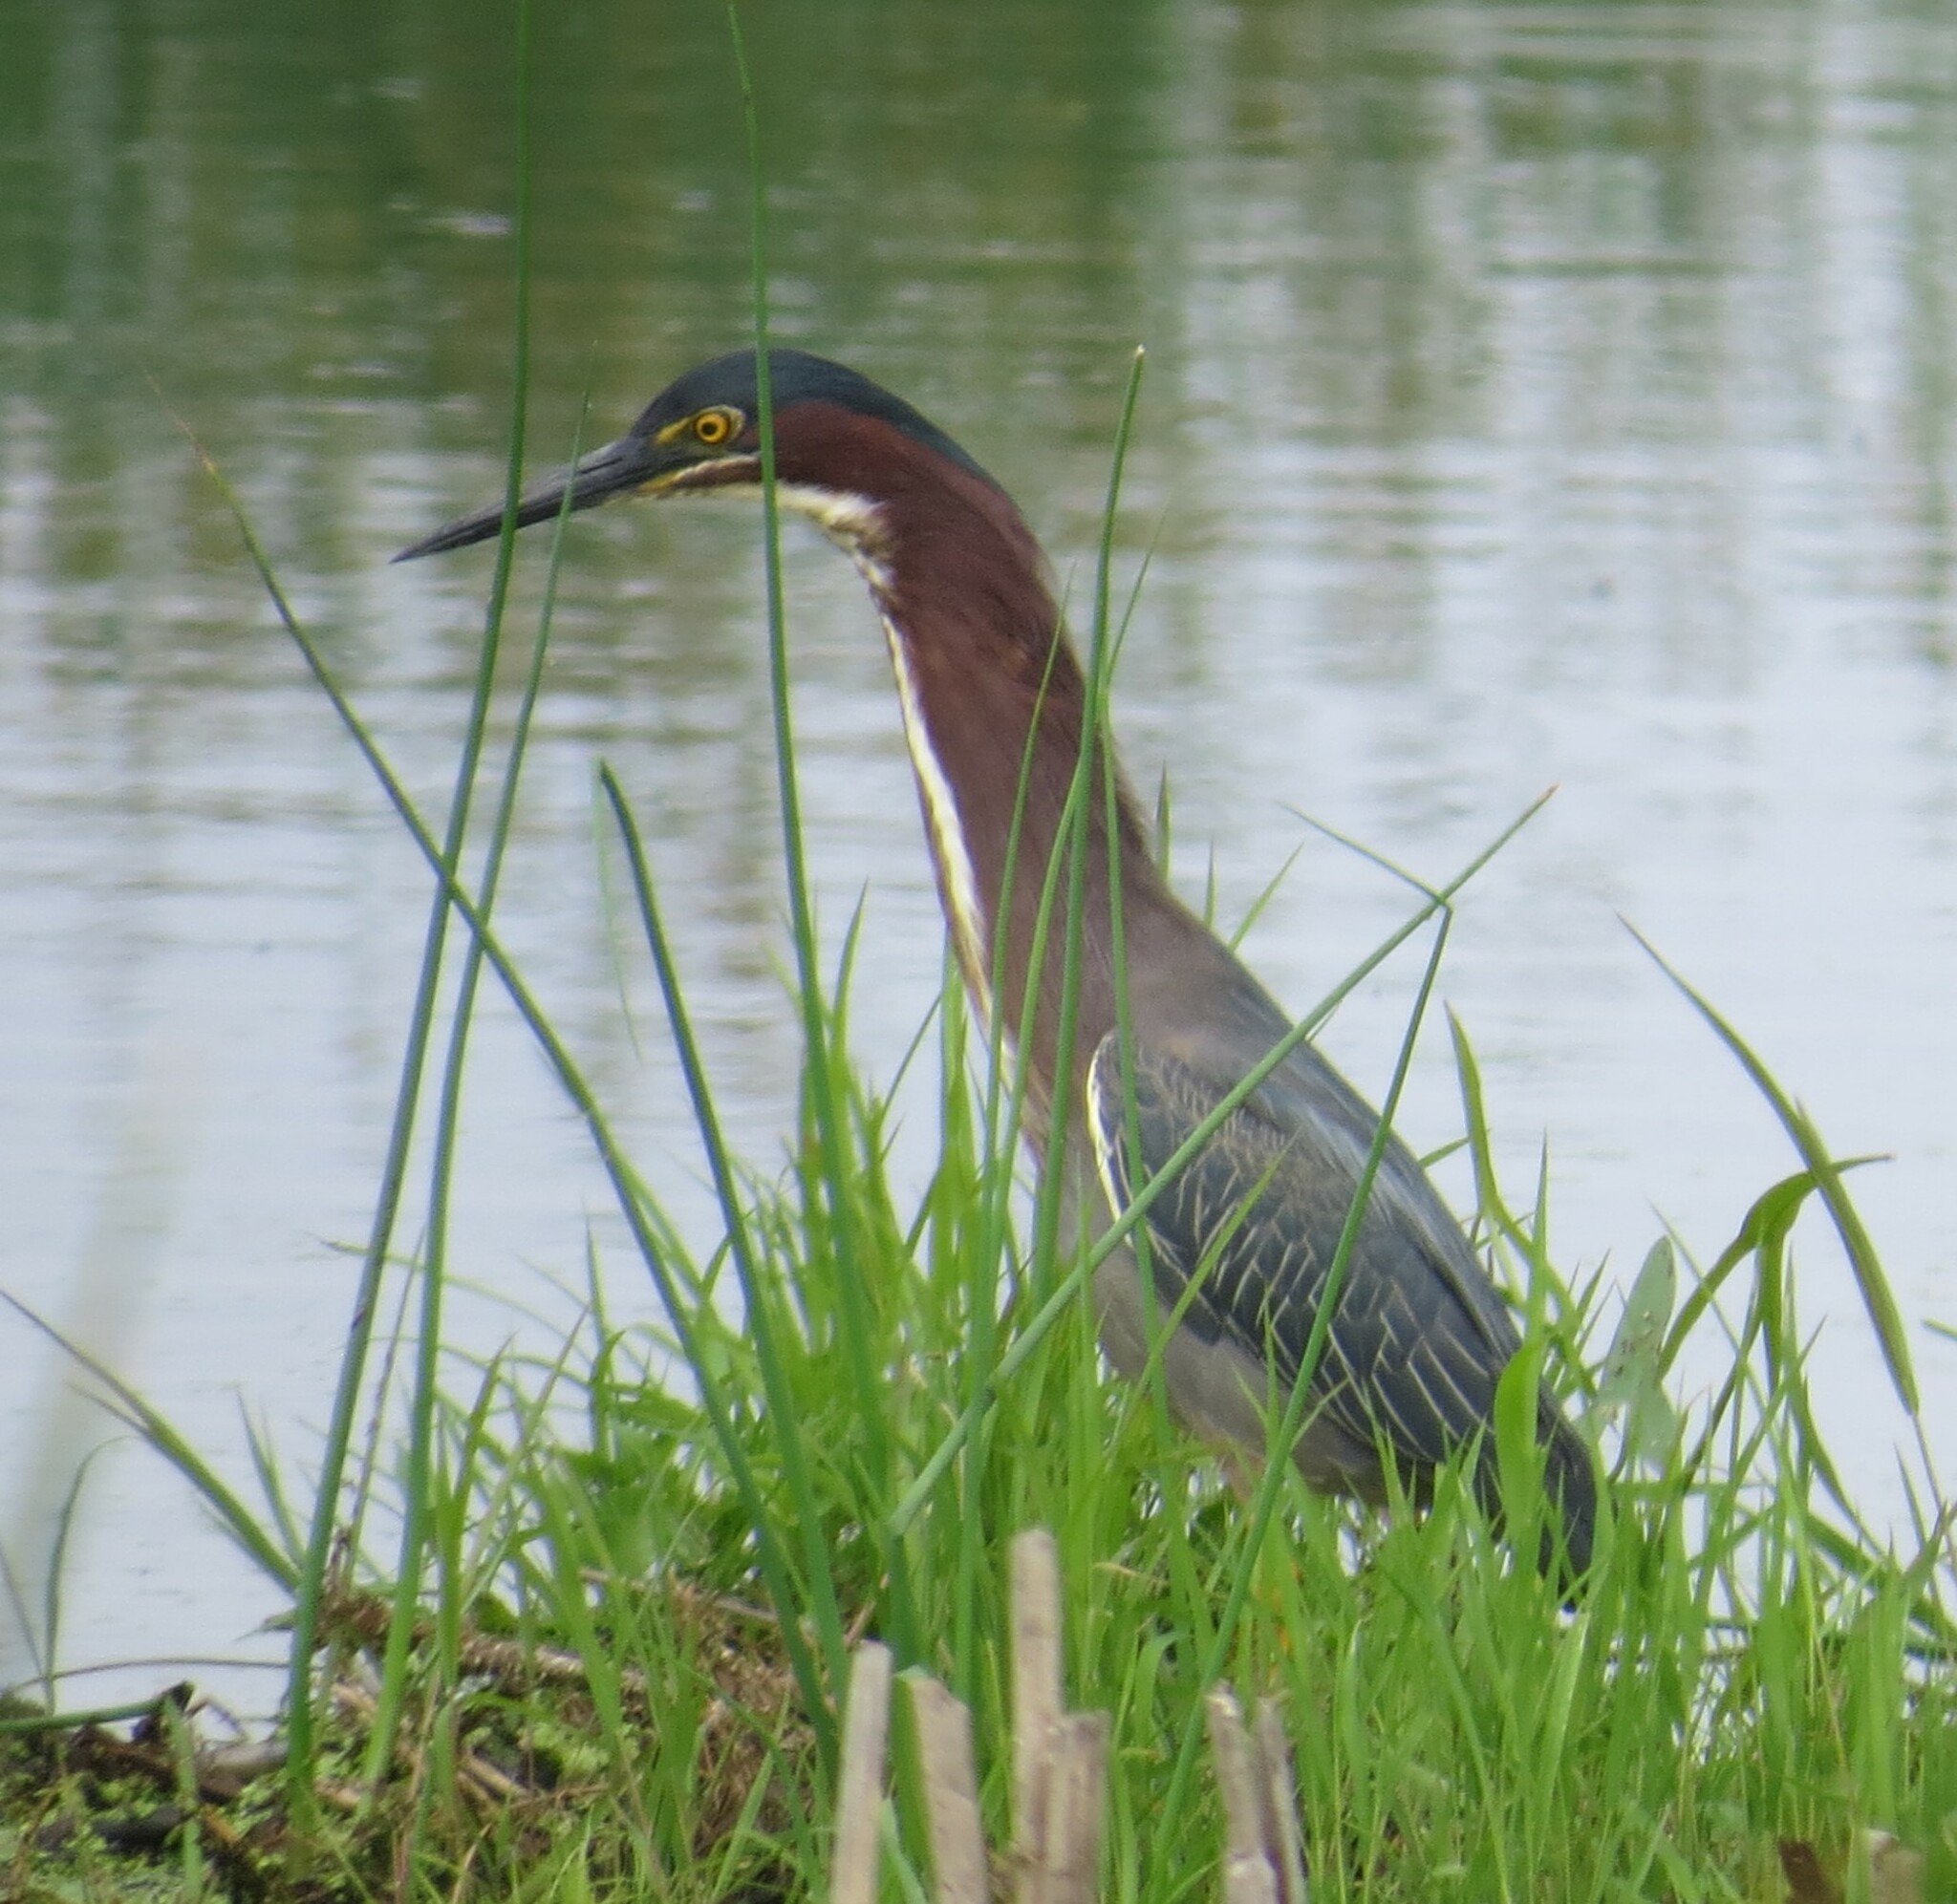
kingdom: Animalia
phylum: Chordata
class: Aves
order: Pelecaniformes
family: Ardeidae
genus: Butorides
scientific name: Butorides virescens
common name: Green heron
